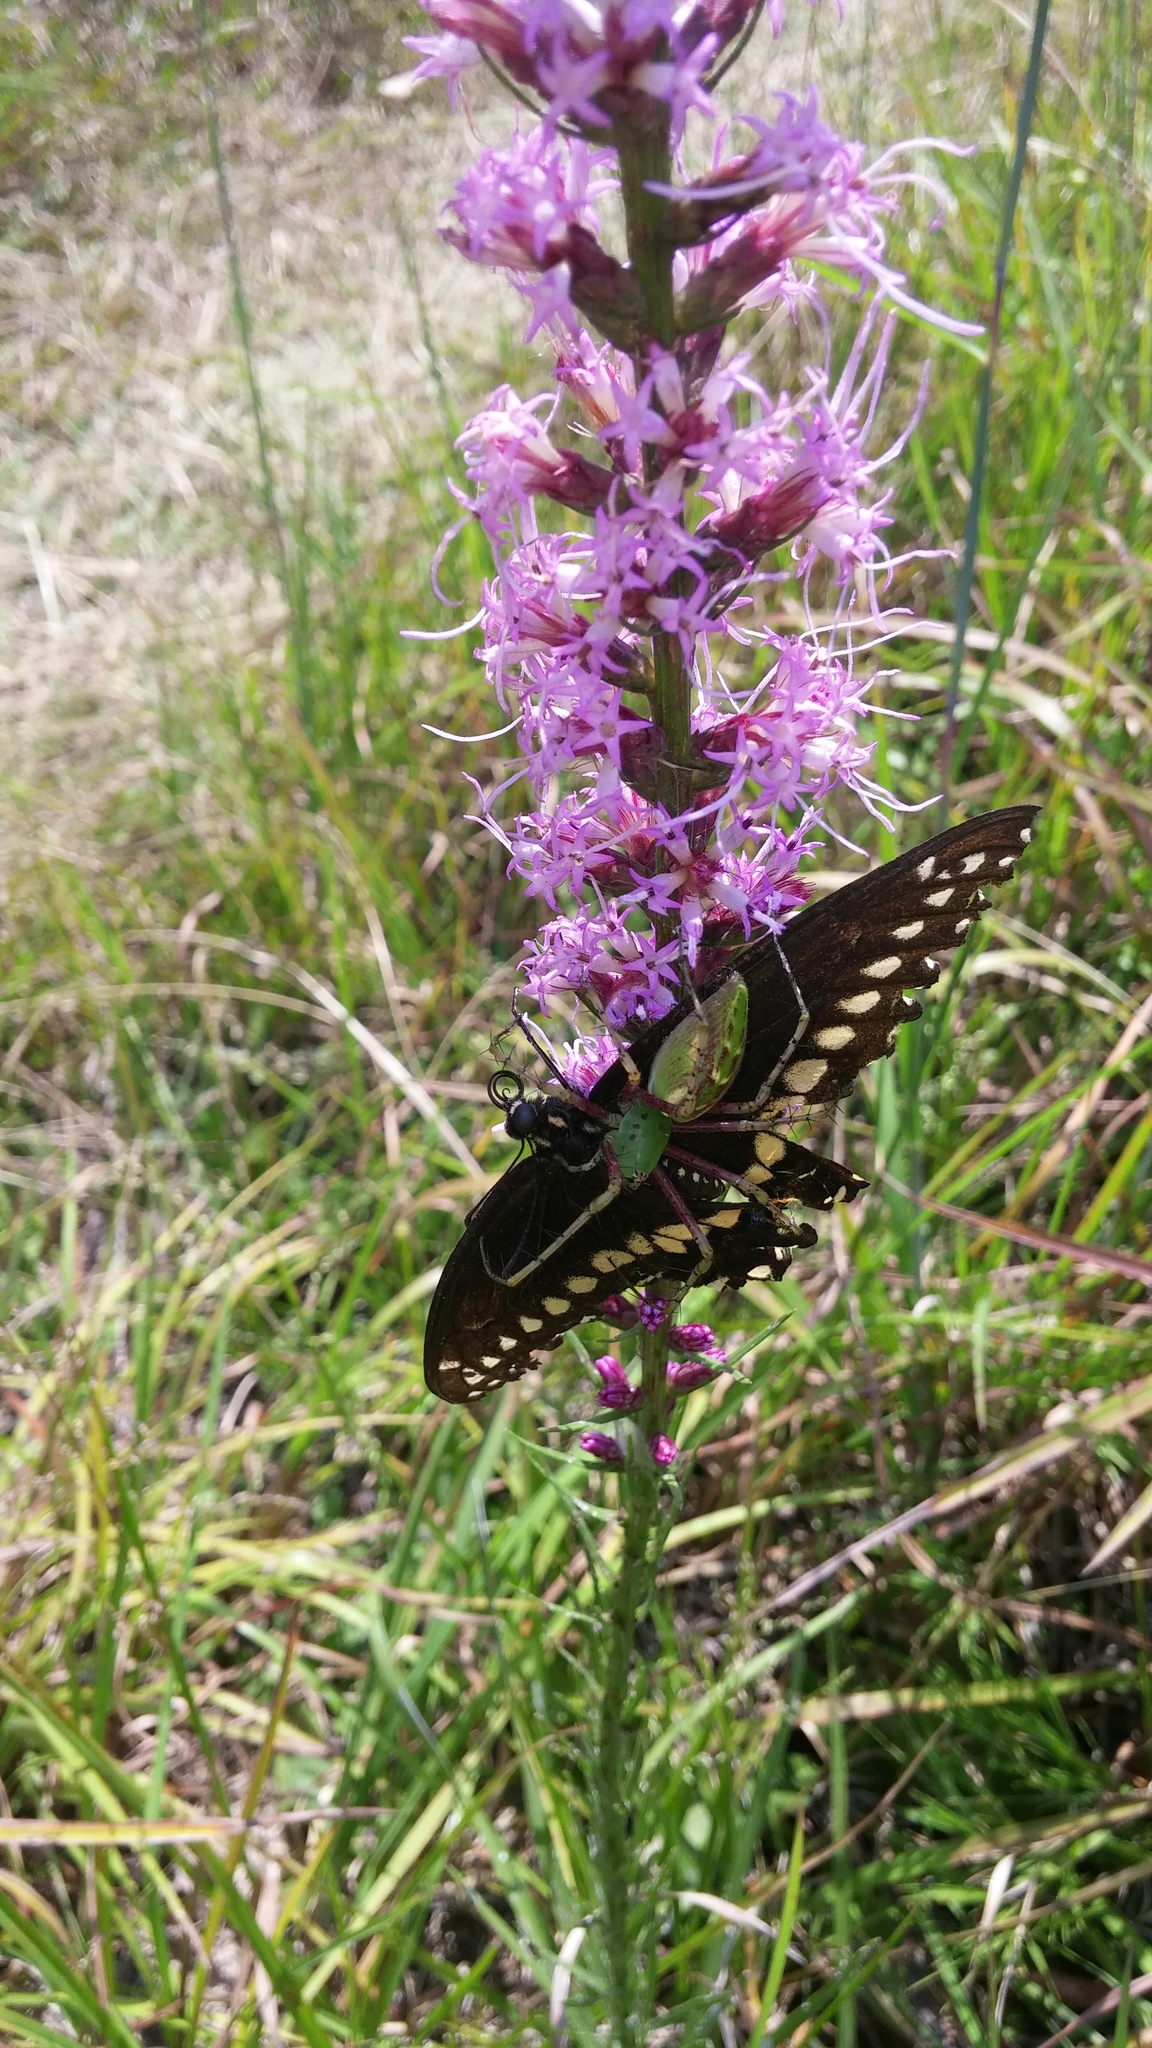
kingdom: Plantae
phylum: Tracheophyta
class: Magnoliopsida
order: Asterales
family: Asteraceae
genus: Liatris
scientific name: Liatris spicata
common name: Florist gayfeather
